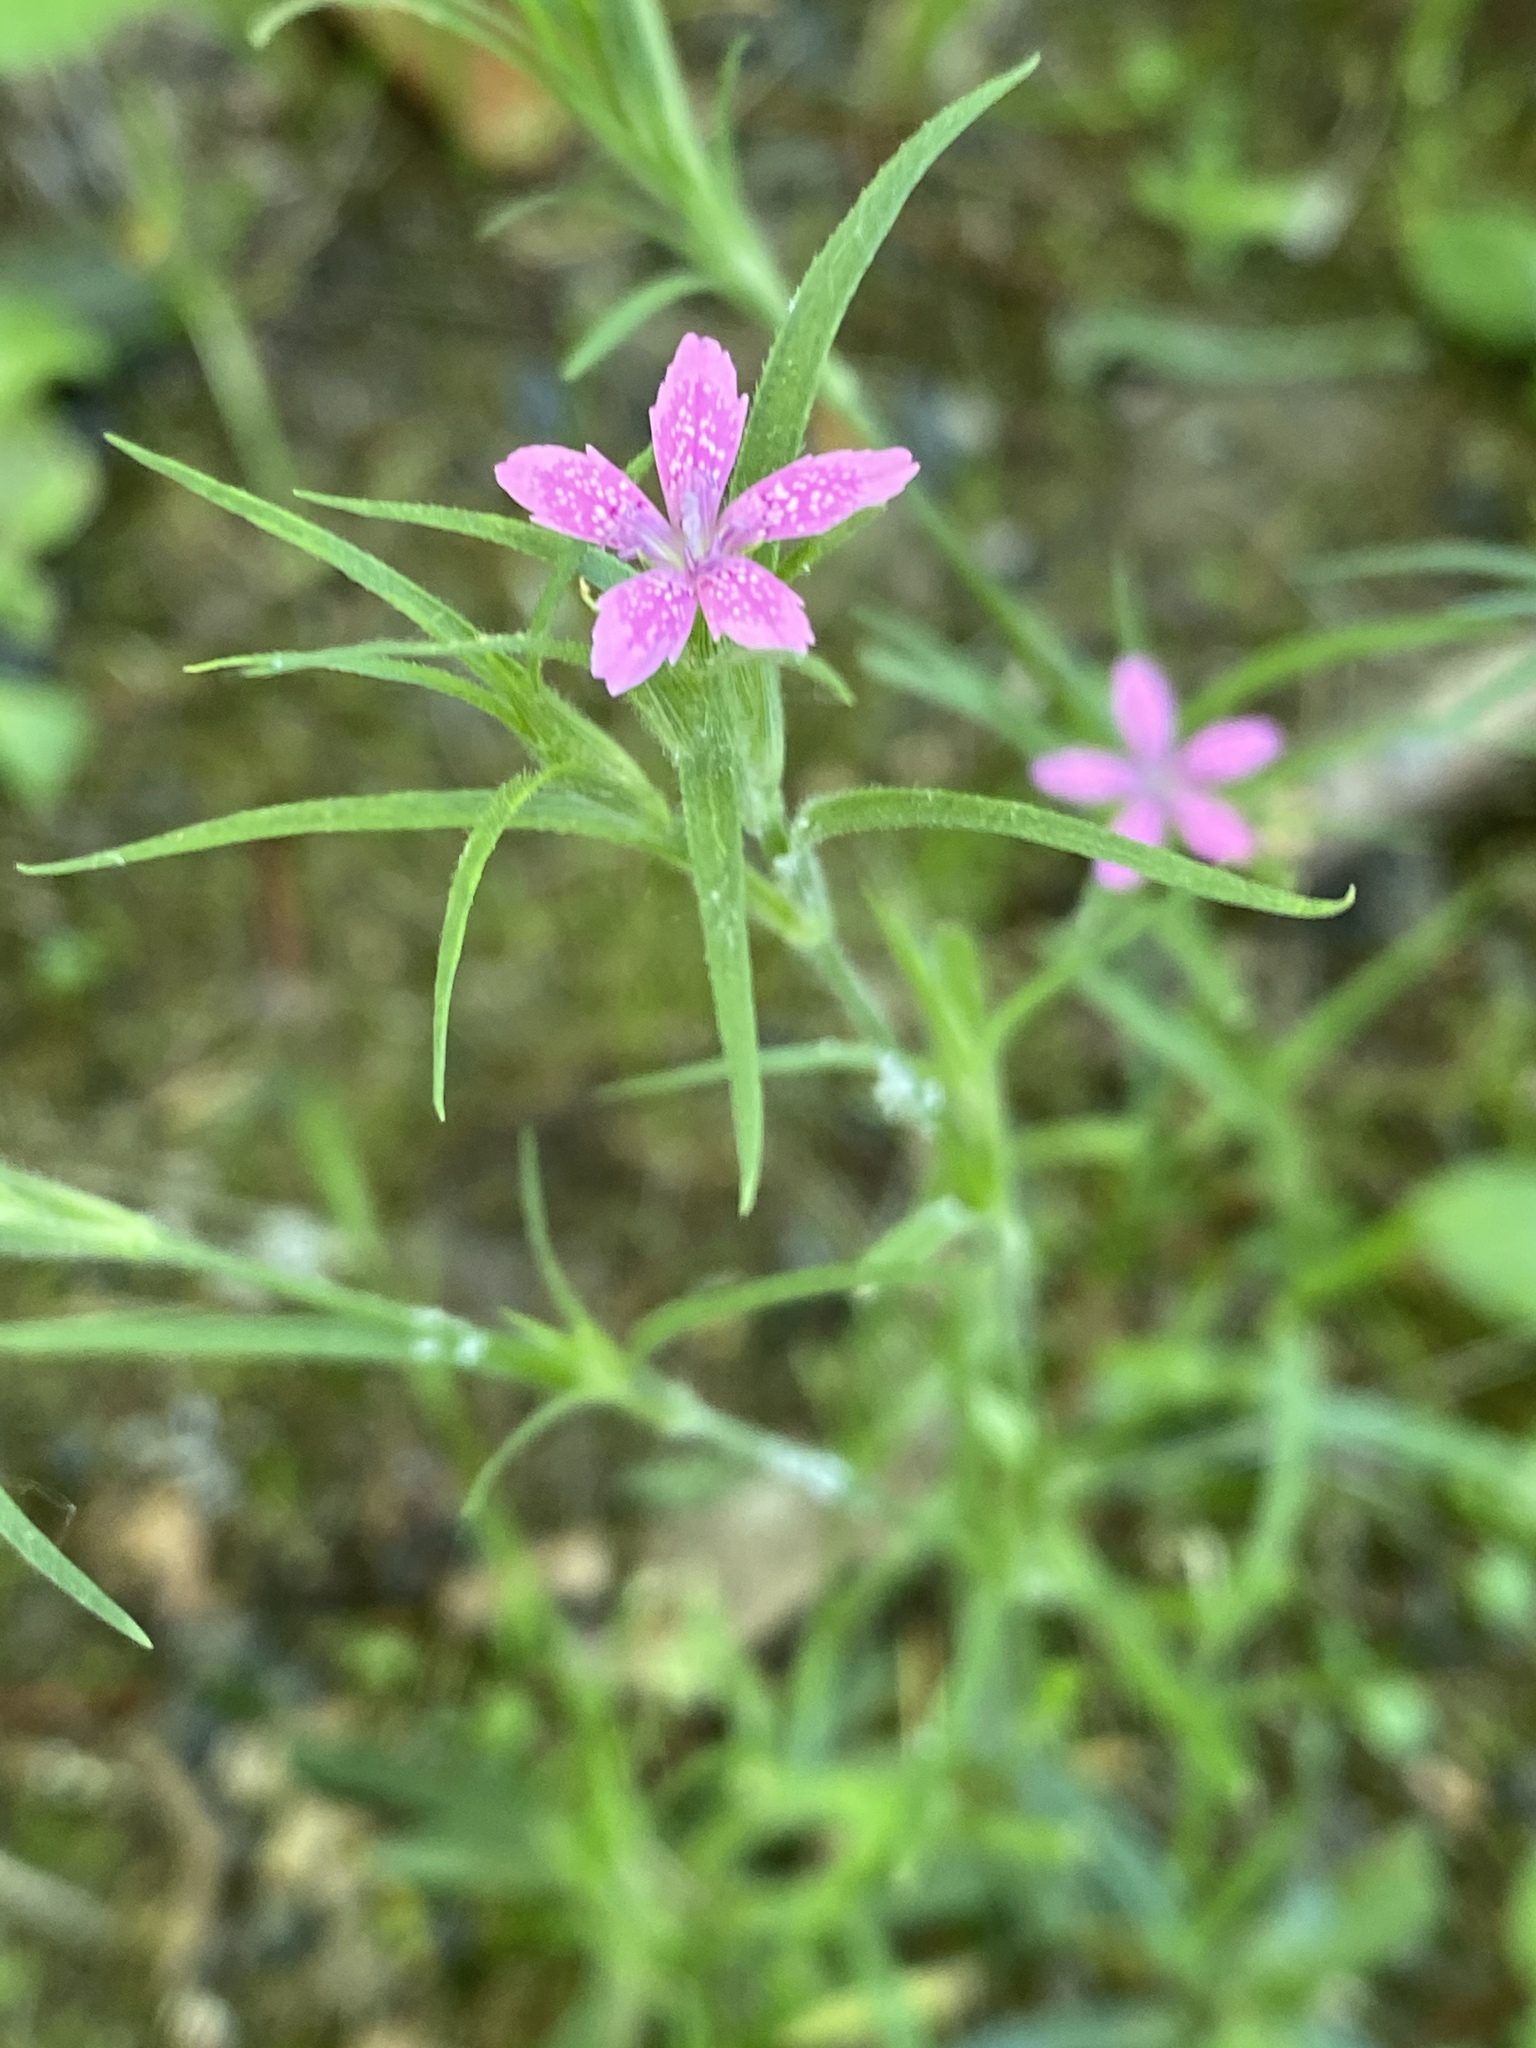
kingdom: Plantae
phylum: Tracheophyta
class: Magnoliopsida
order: Caryophyllales
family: Caryophyllaceae
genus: Dianthus
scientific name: Dianthus armeria
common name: Deptford pink
